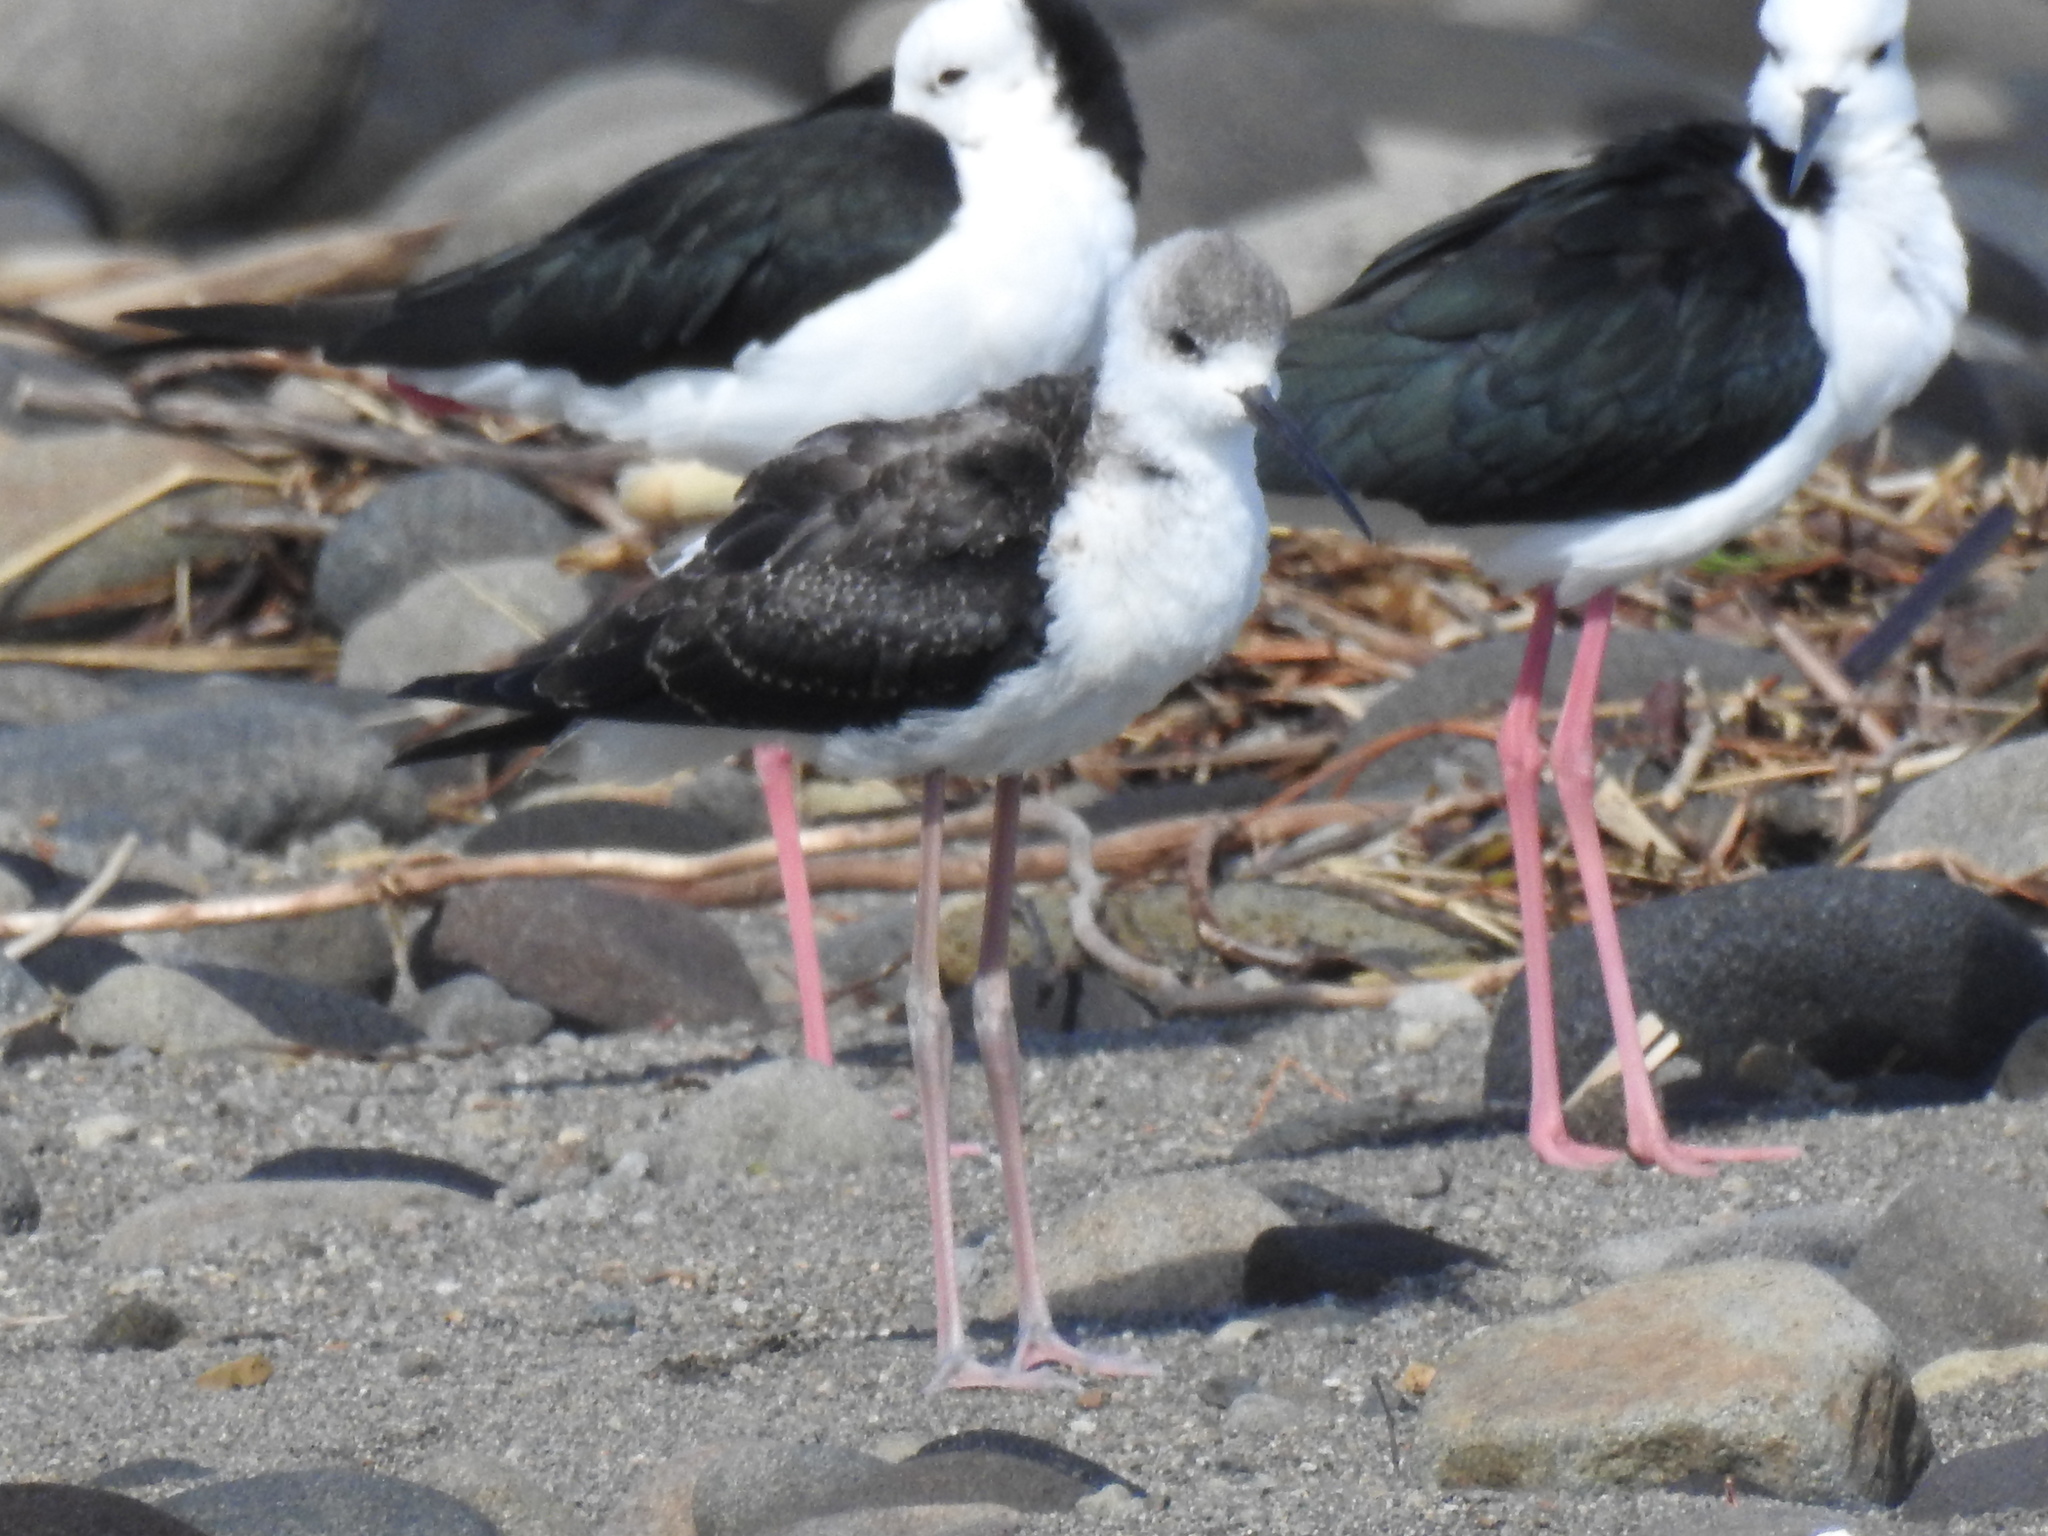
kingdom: Animalia
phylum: Chordata
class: Aves
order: Charadriiformes
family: Recurvirostridae
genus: Himantopus
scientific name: Himantopus leucocephalus
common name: White-headed stilt
